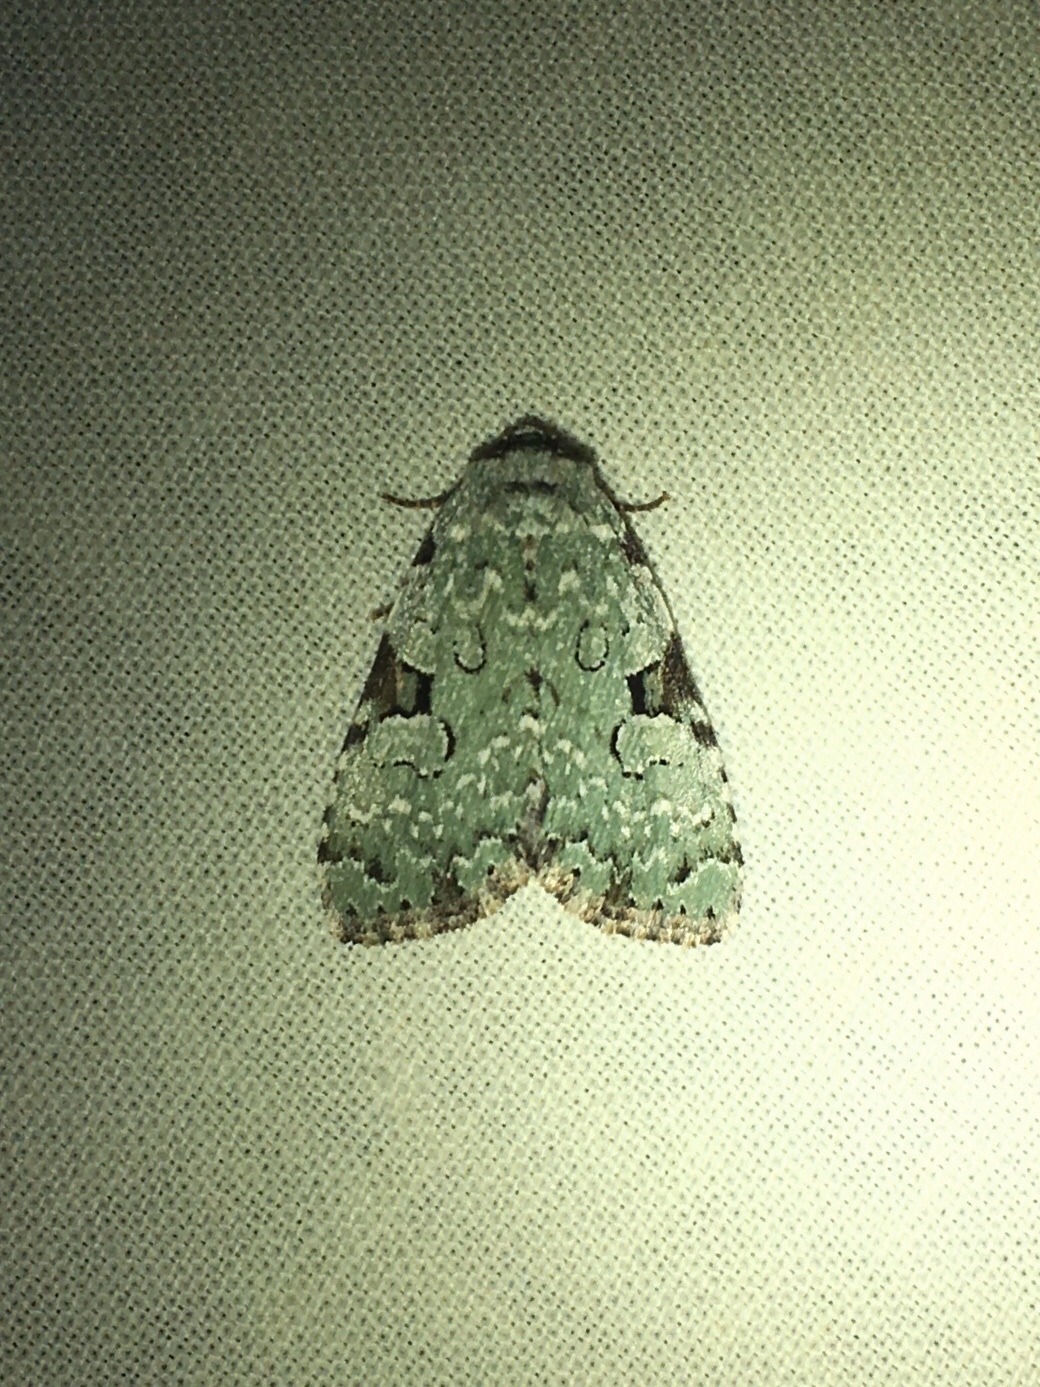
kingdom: Animalia
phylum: Arthropoda
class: Insecta
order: Lepidoptera
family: Noctuidae
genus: Leuconycta
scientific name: Leuconycta diphteroides
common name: Green leuconycta moth
